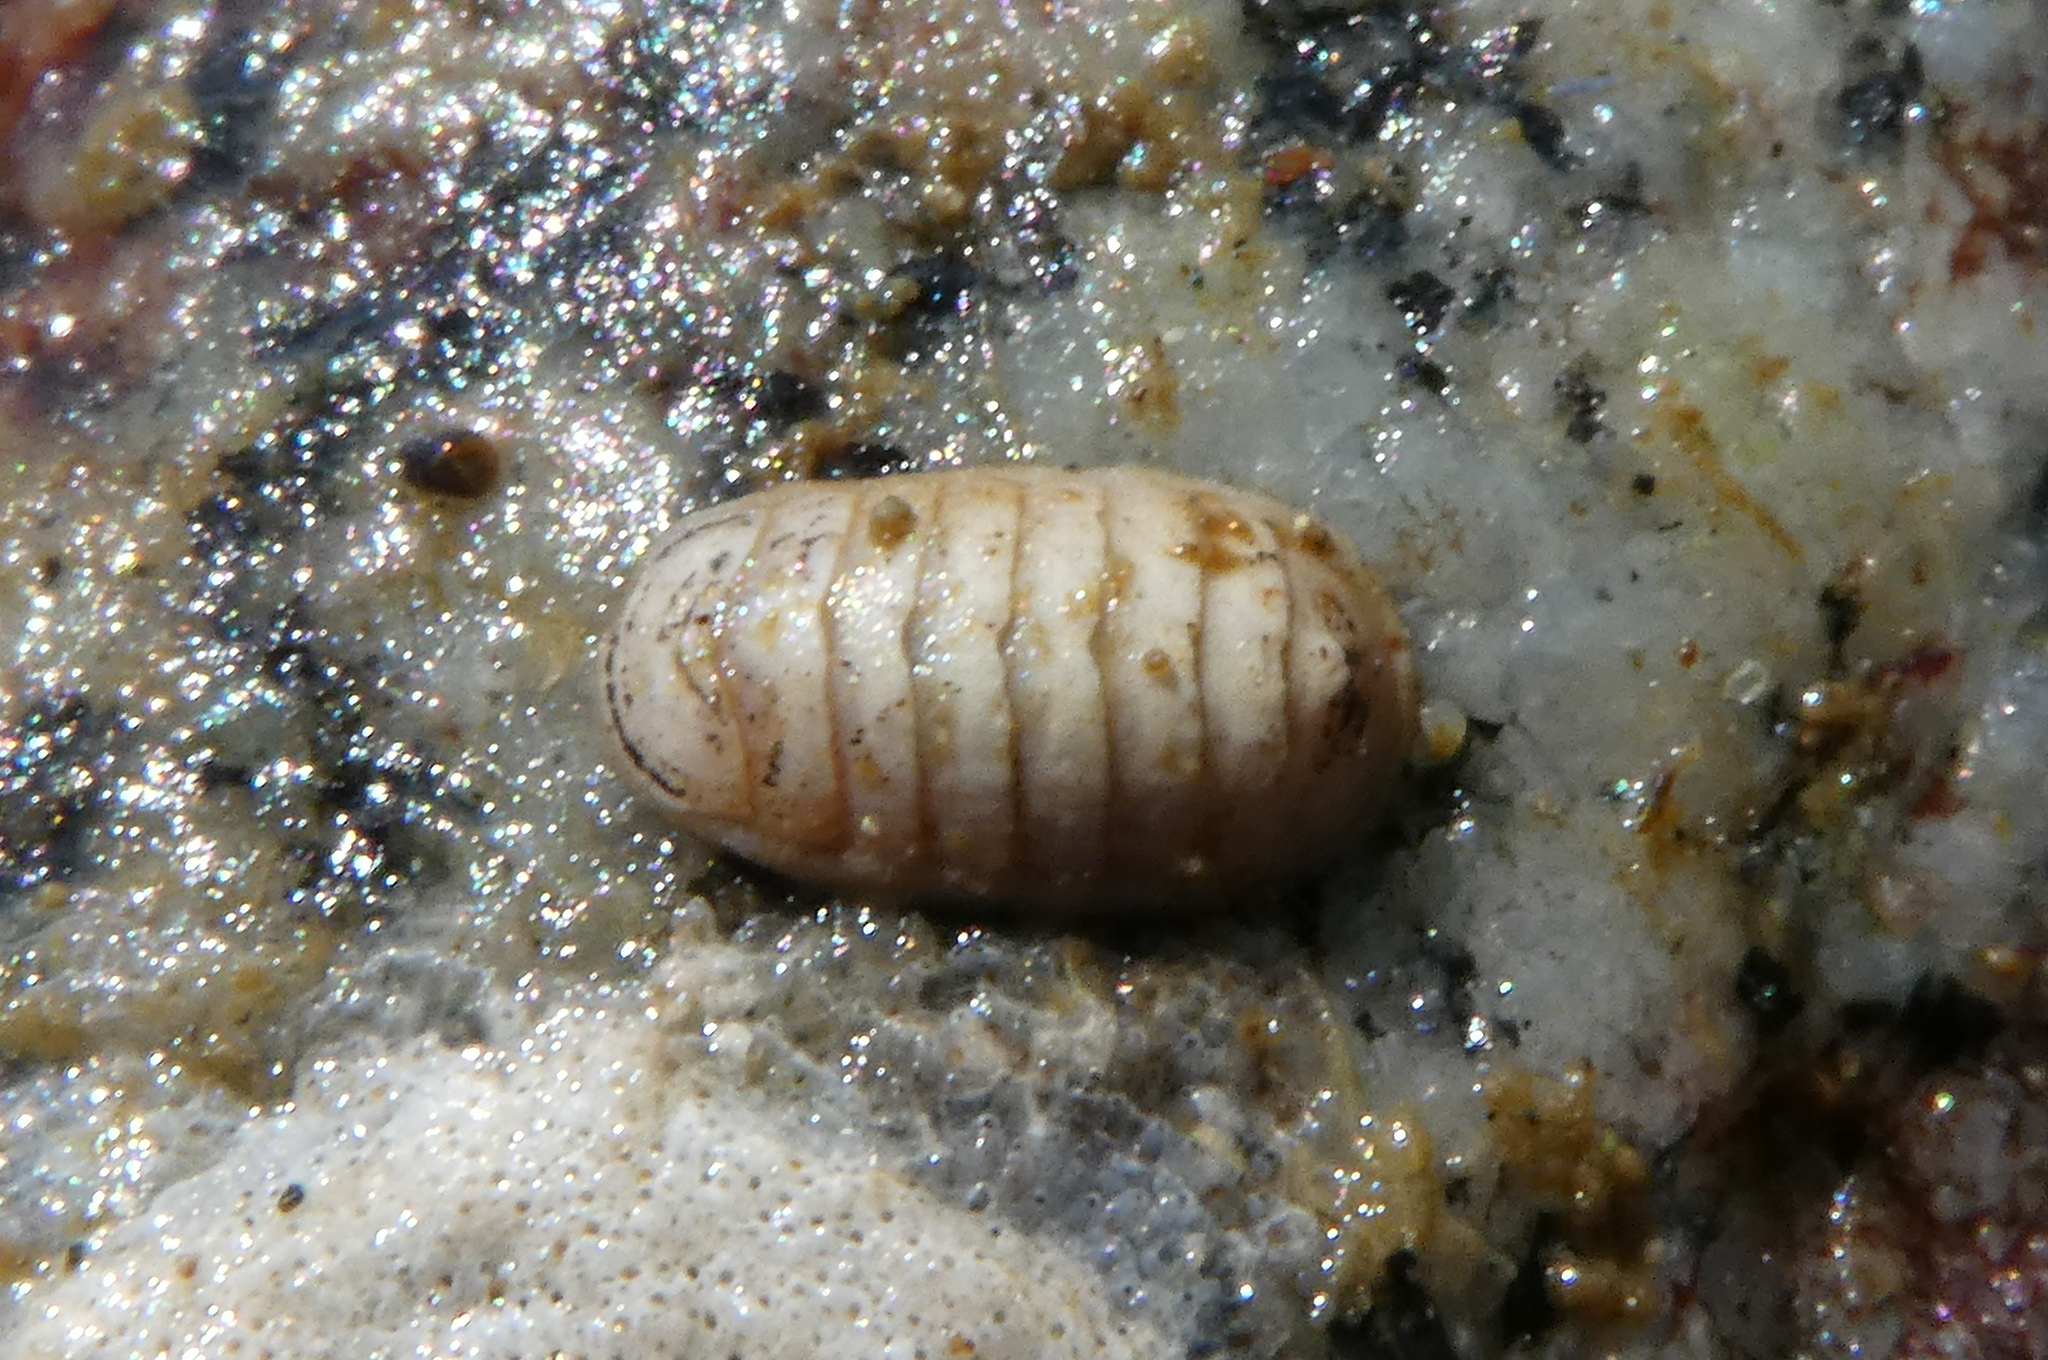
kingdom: Animalia
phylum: Mollusca
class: Polyplacophora
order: Lepidopleurida
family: Leptochitonidae
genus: Leptochiton
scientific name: Leptochiton rugatus
